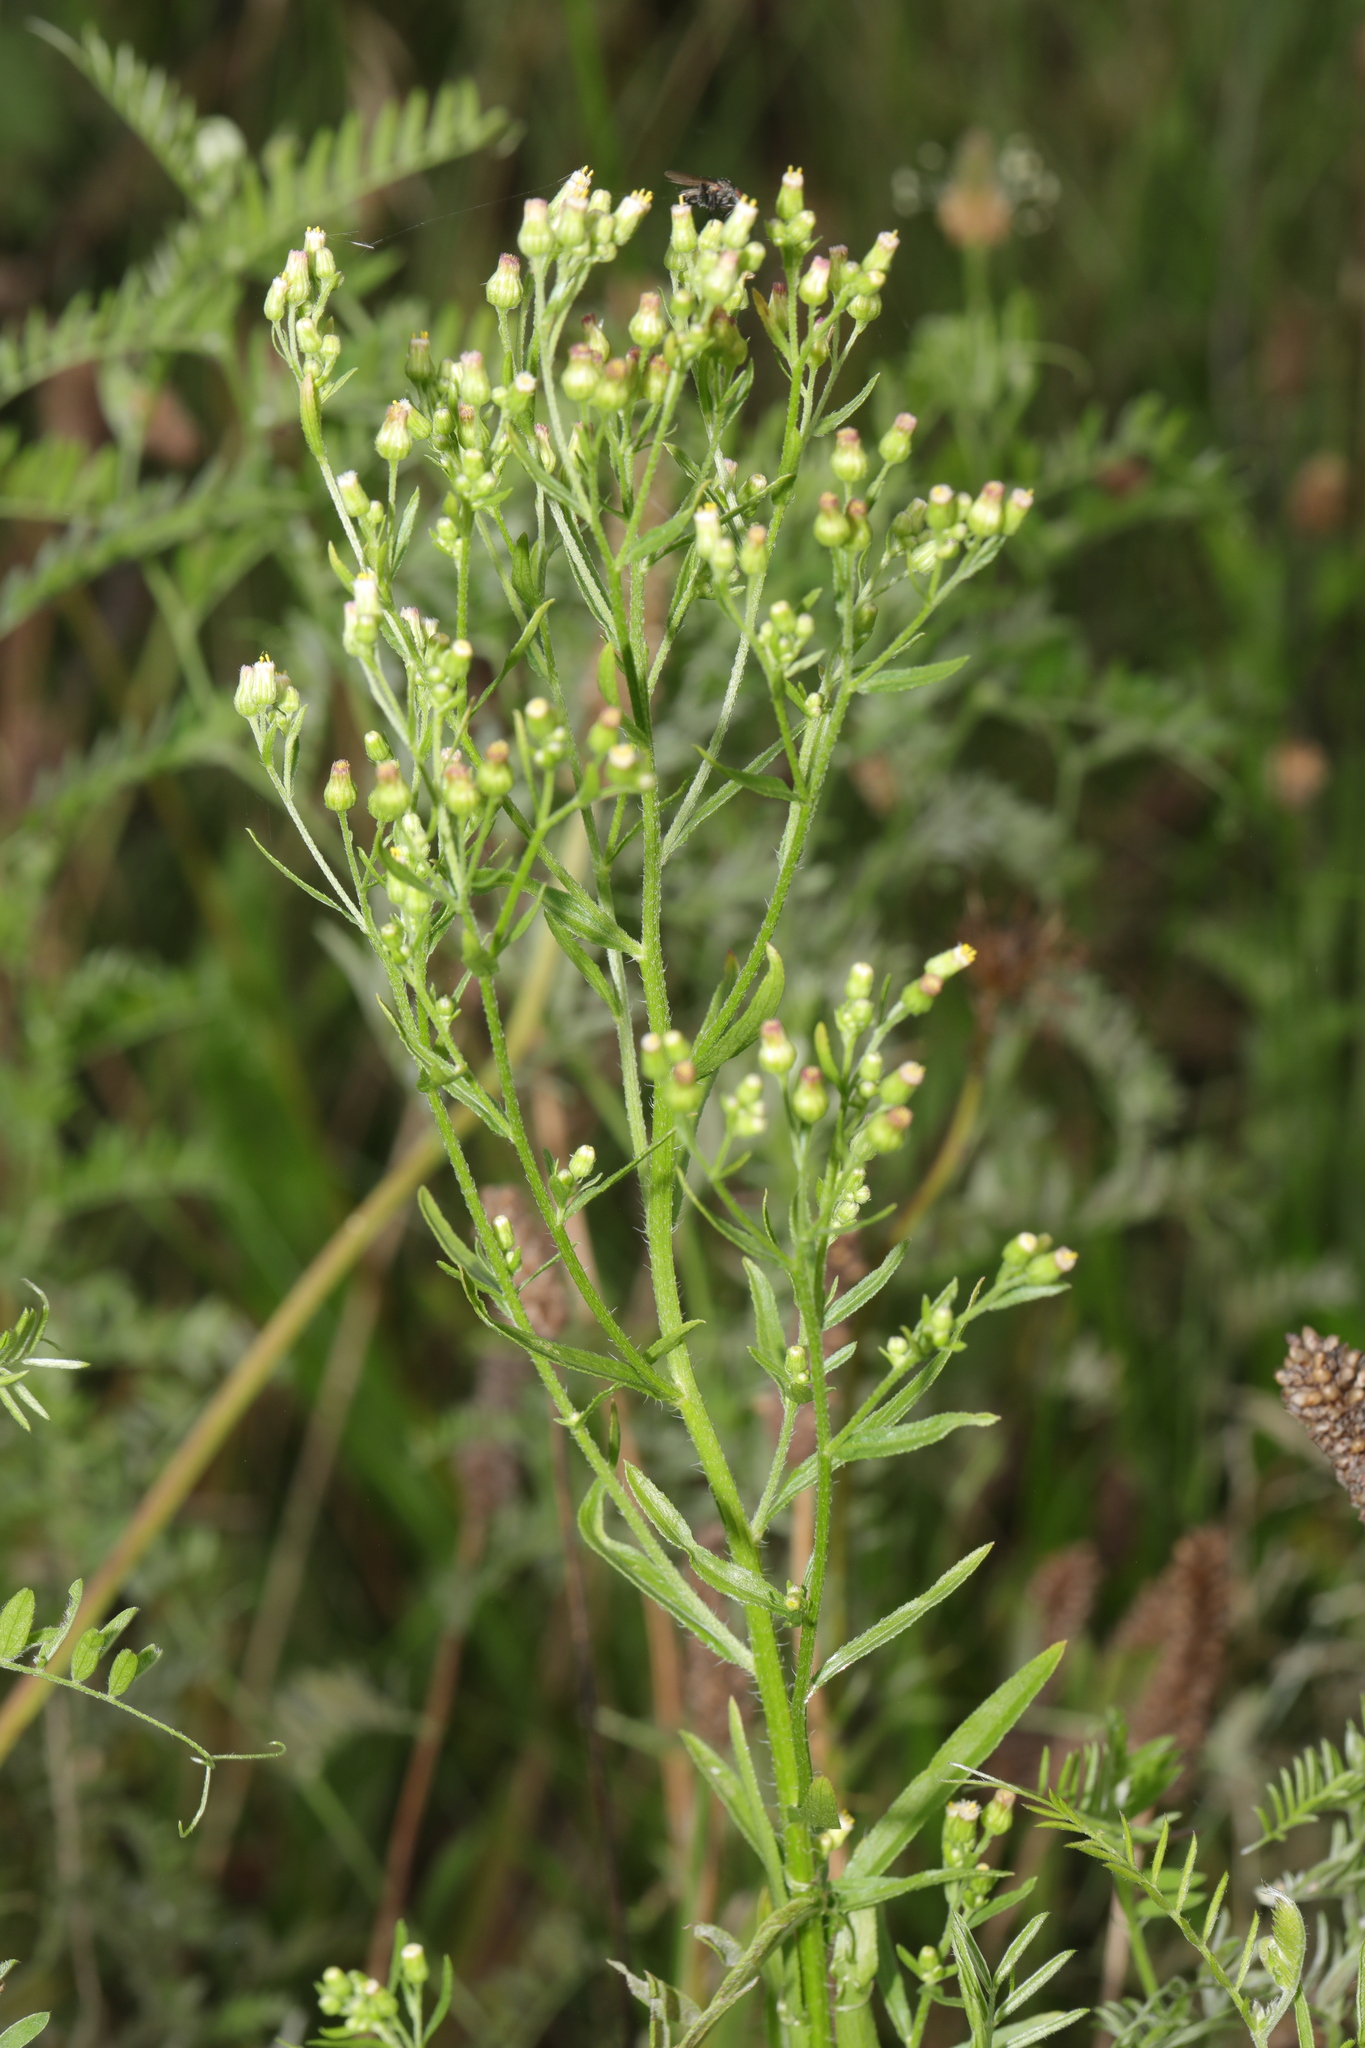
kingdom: Plantae
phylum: Tracheophyta
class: Magnoliopsida
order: Asterales
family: Asteraceae
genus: Erigeron
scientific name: Erigeron canadensis
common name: Canadian fleabane
